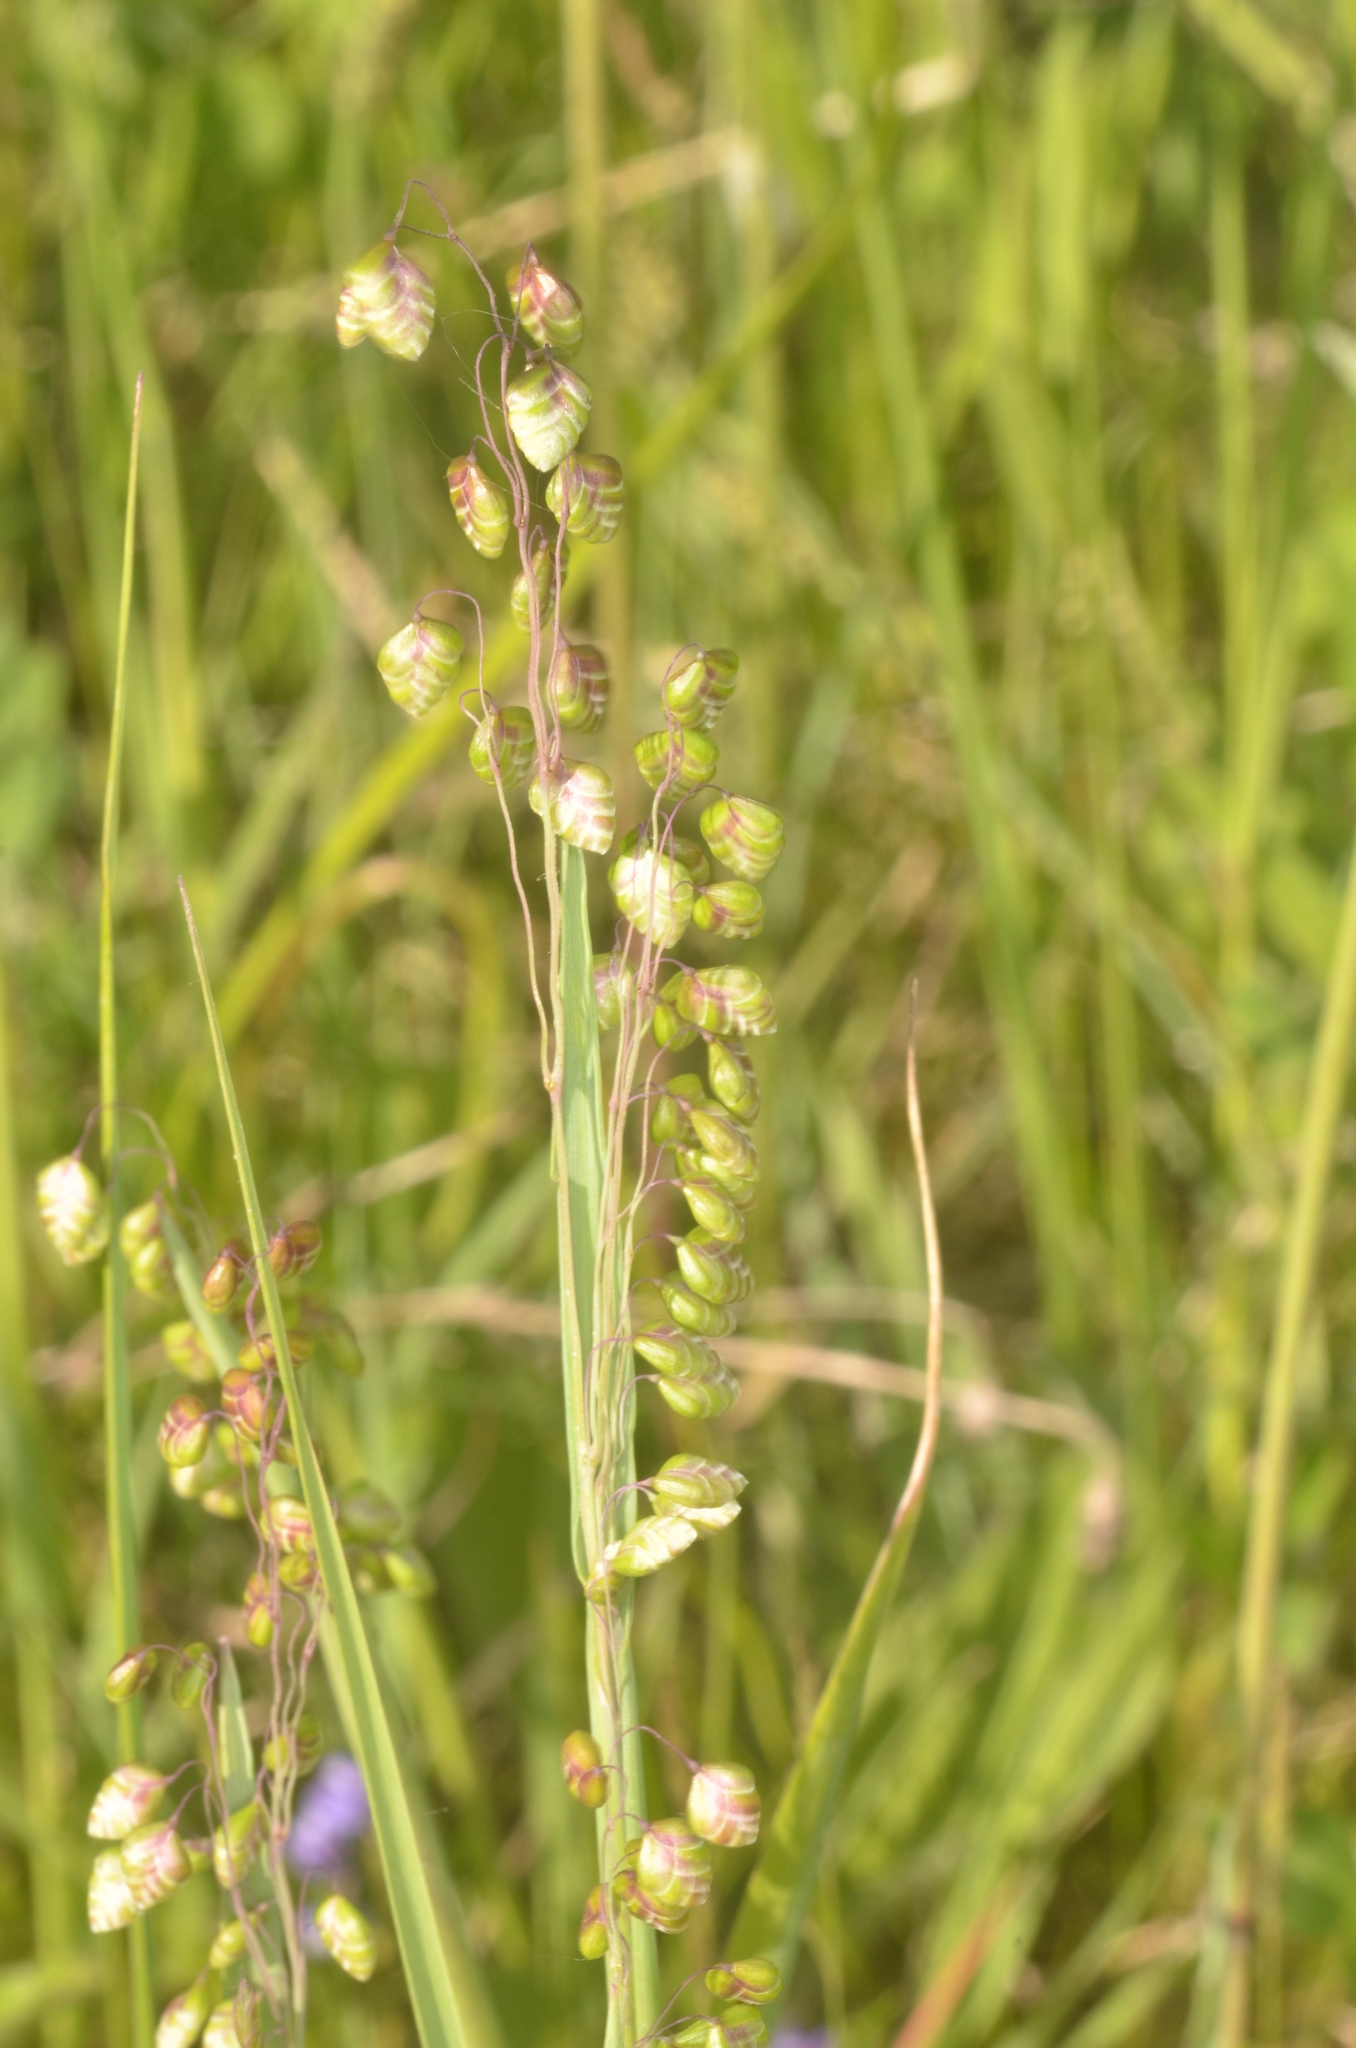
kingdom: Plantae
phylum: Tracheophyta
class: Liliopsida
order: Poales
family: Poaceae
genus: Briza
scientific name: Briza media
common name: Quaking grass
